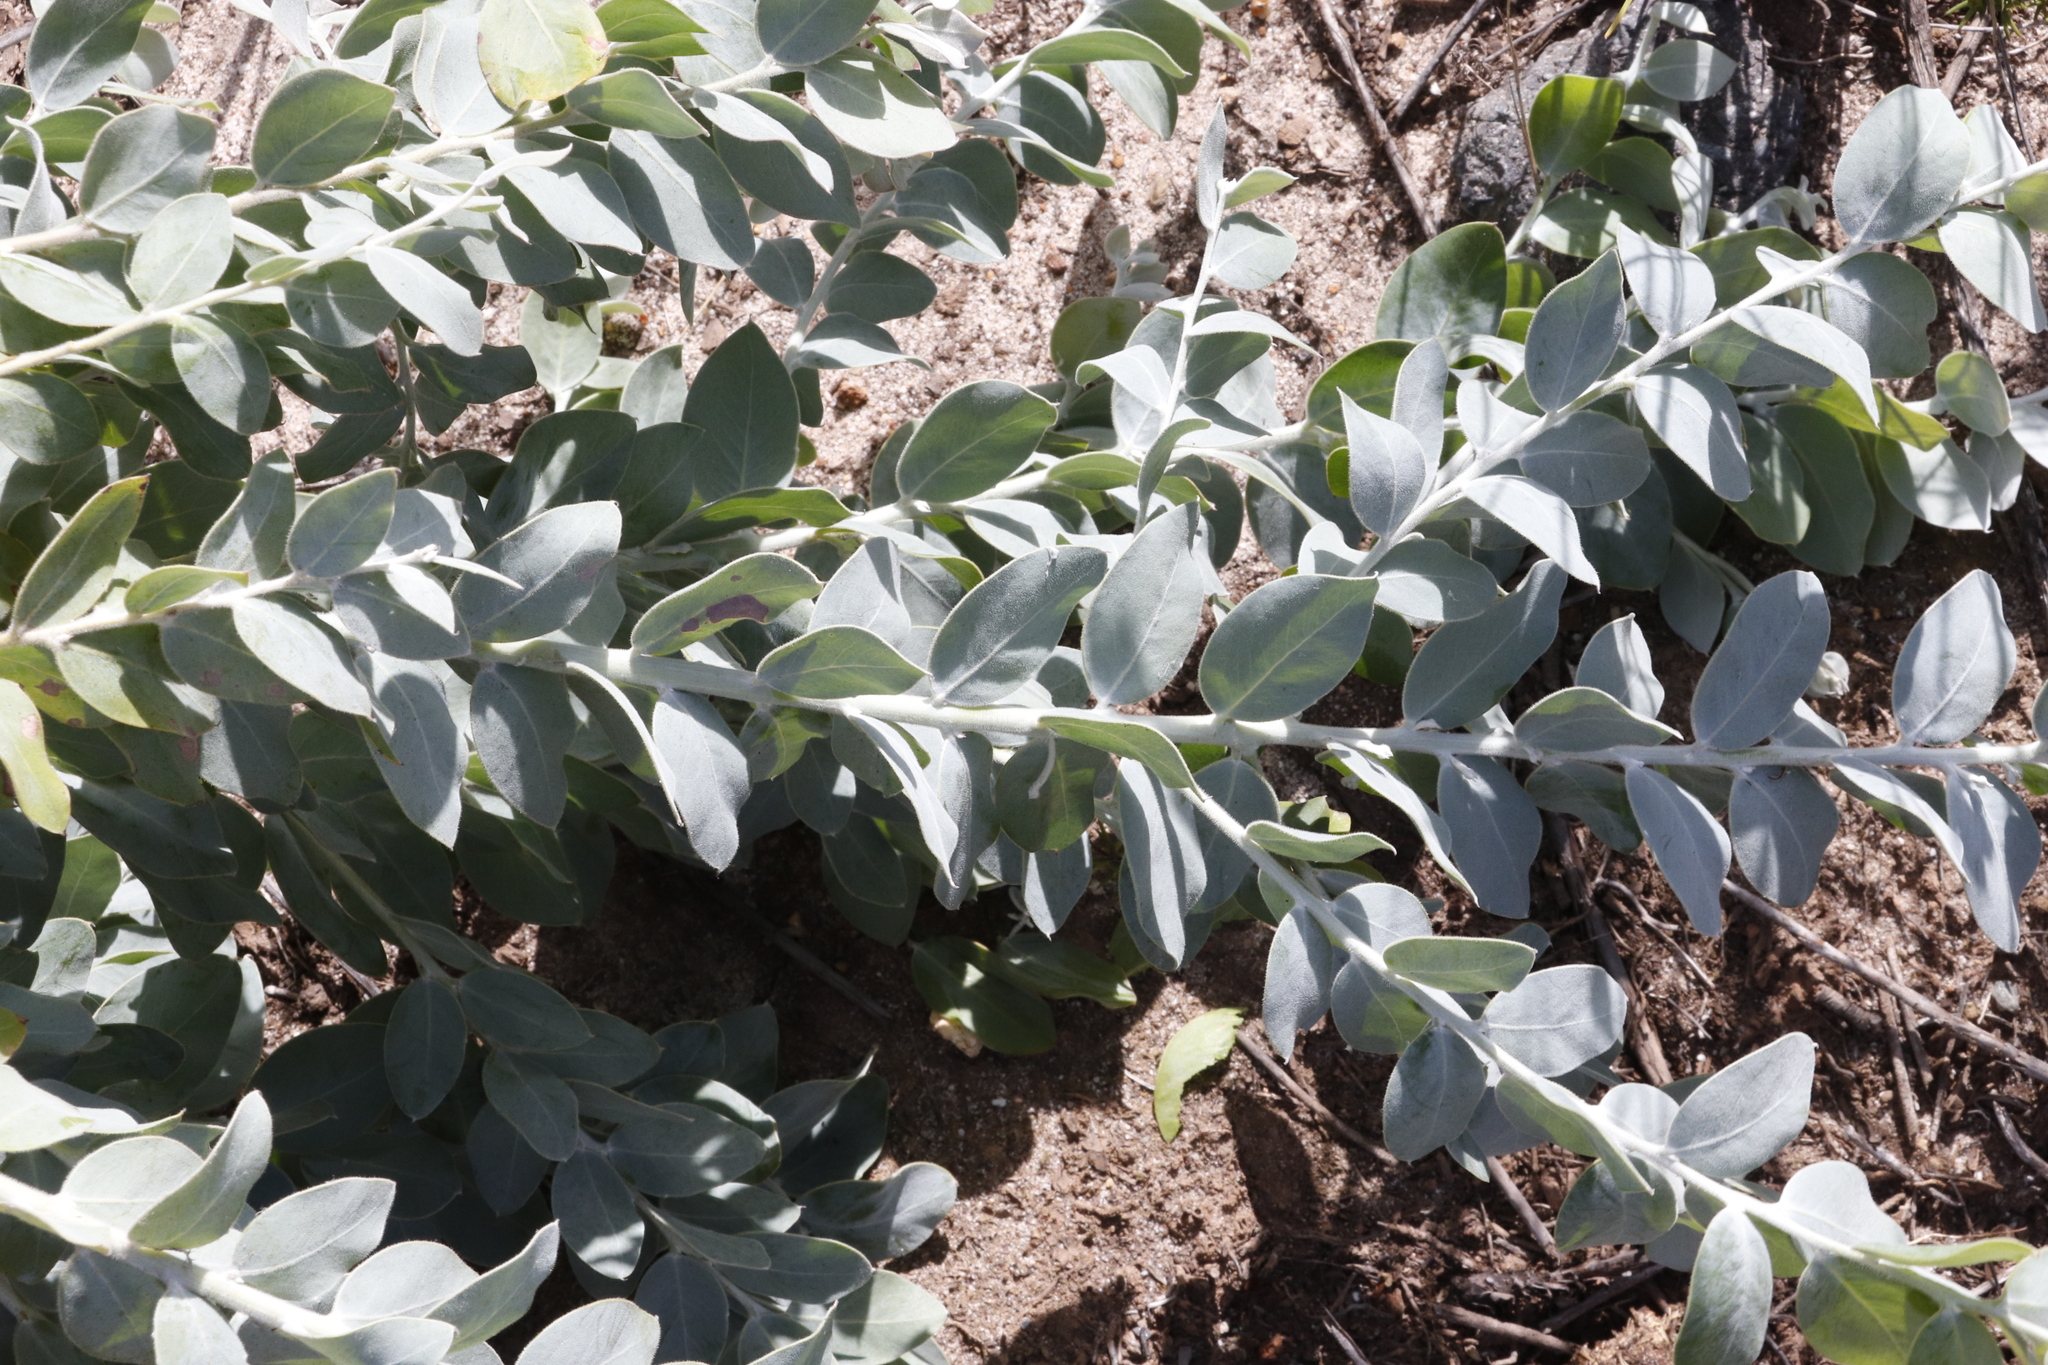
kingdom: Plantae
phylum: Tracheophyta
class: Magnoliopsida
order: Fabales
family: Fabaceae
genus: Acacia
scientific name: Acacia podalyriifolia
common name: Pearl wattle
